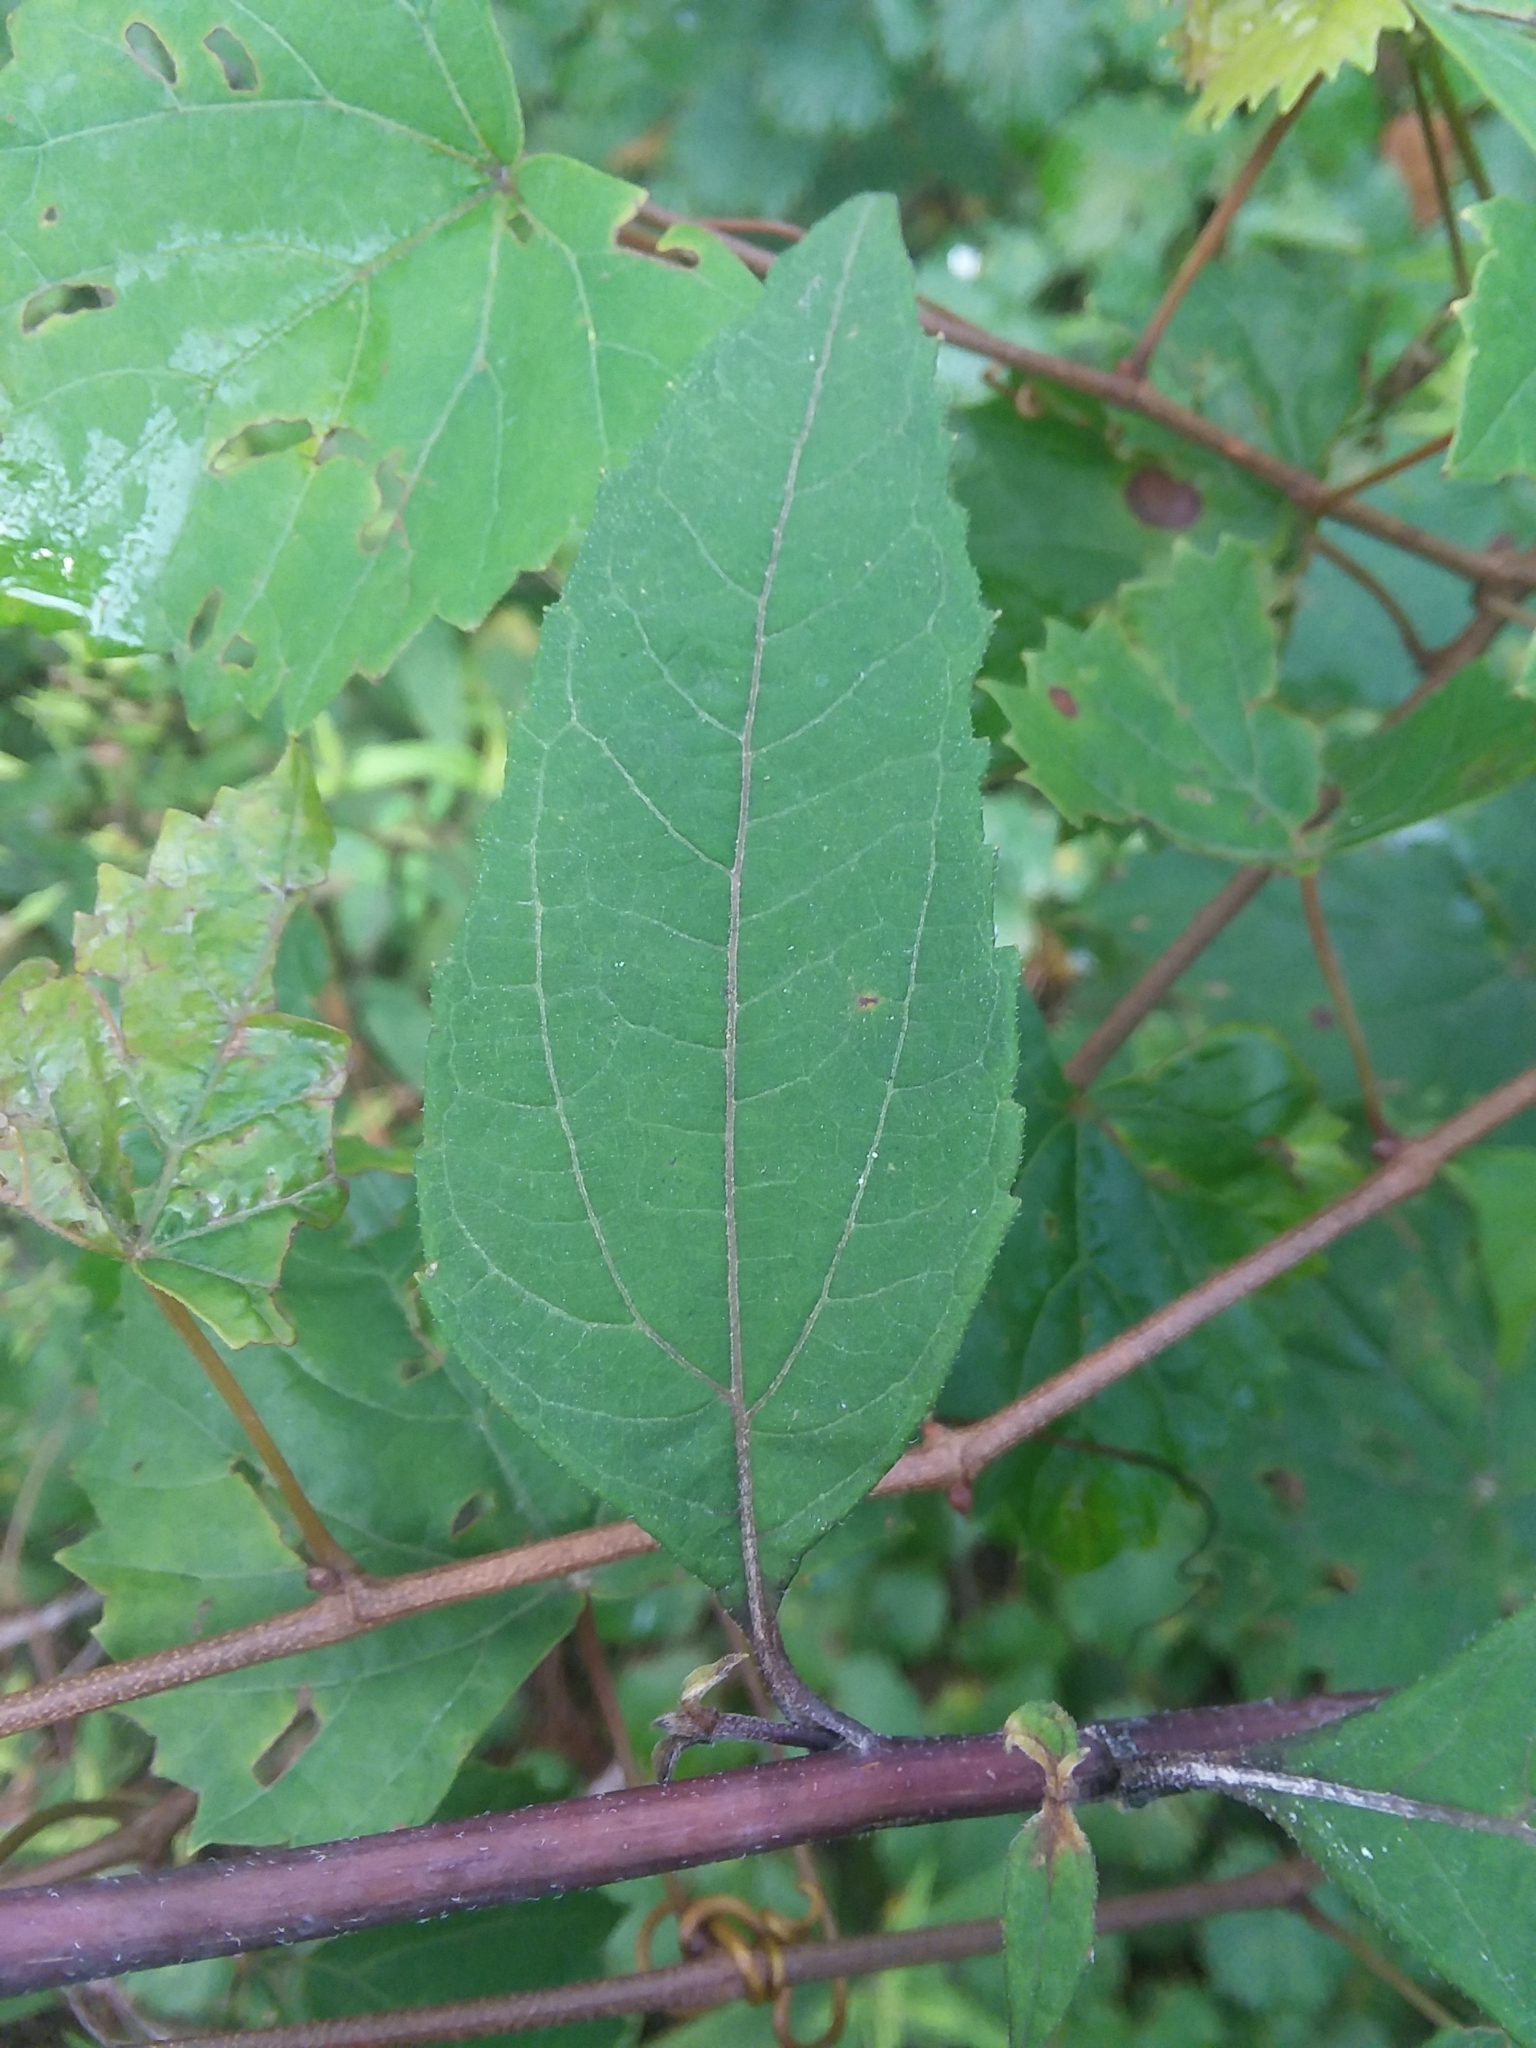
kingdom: Plantae
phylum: Tracheophyta
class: Magnoliopsida
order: Asterales
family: Asteraceae
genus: Helianthus
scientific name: Helianthus microcephalus
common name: Woodland sunflower
